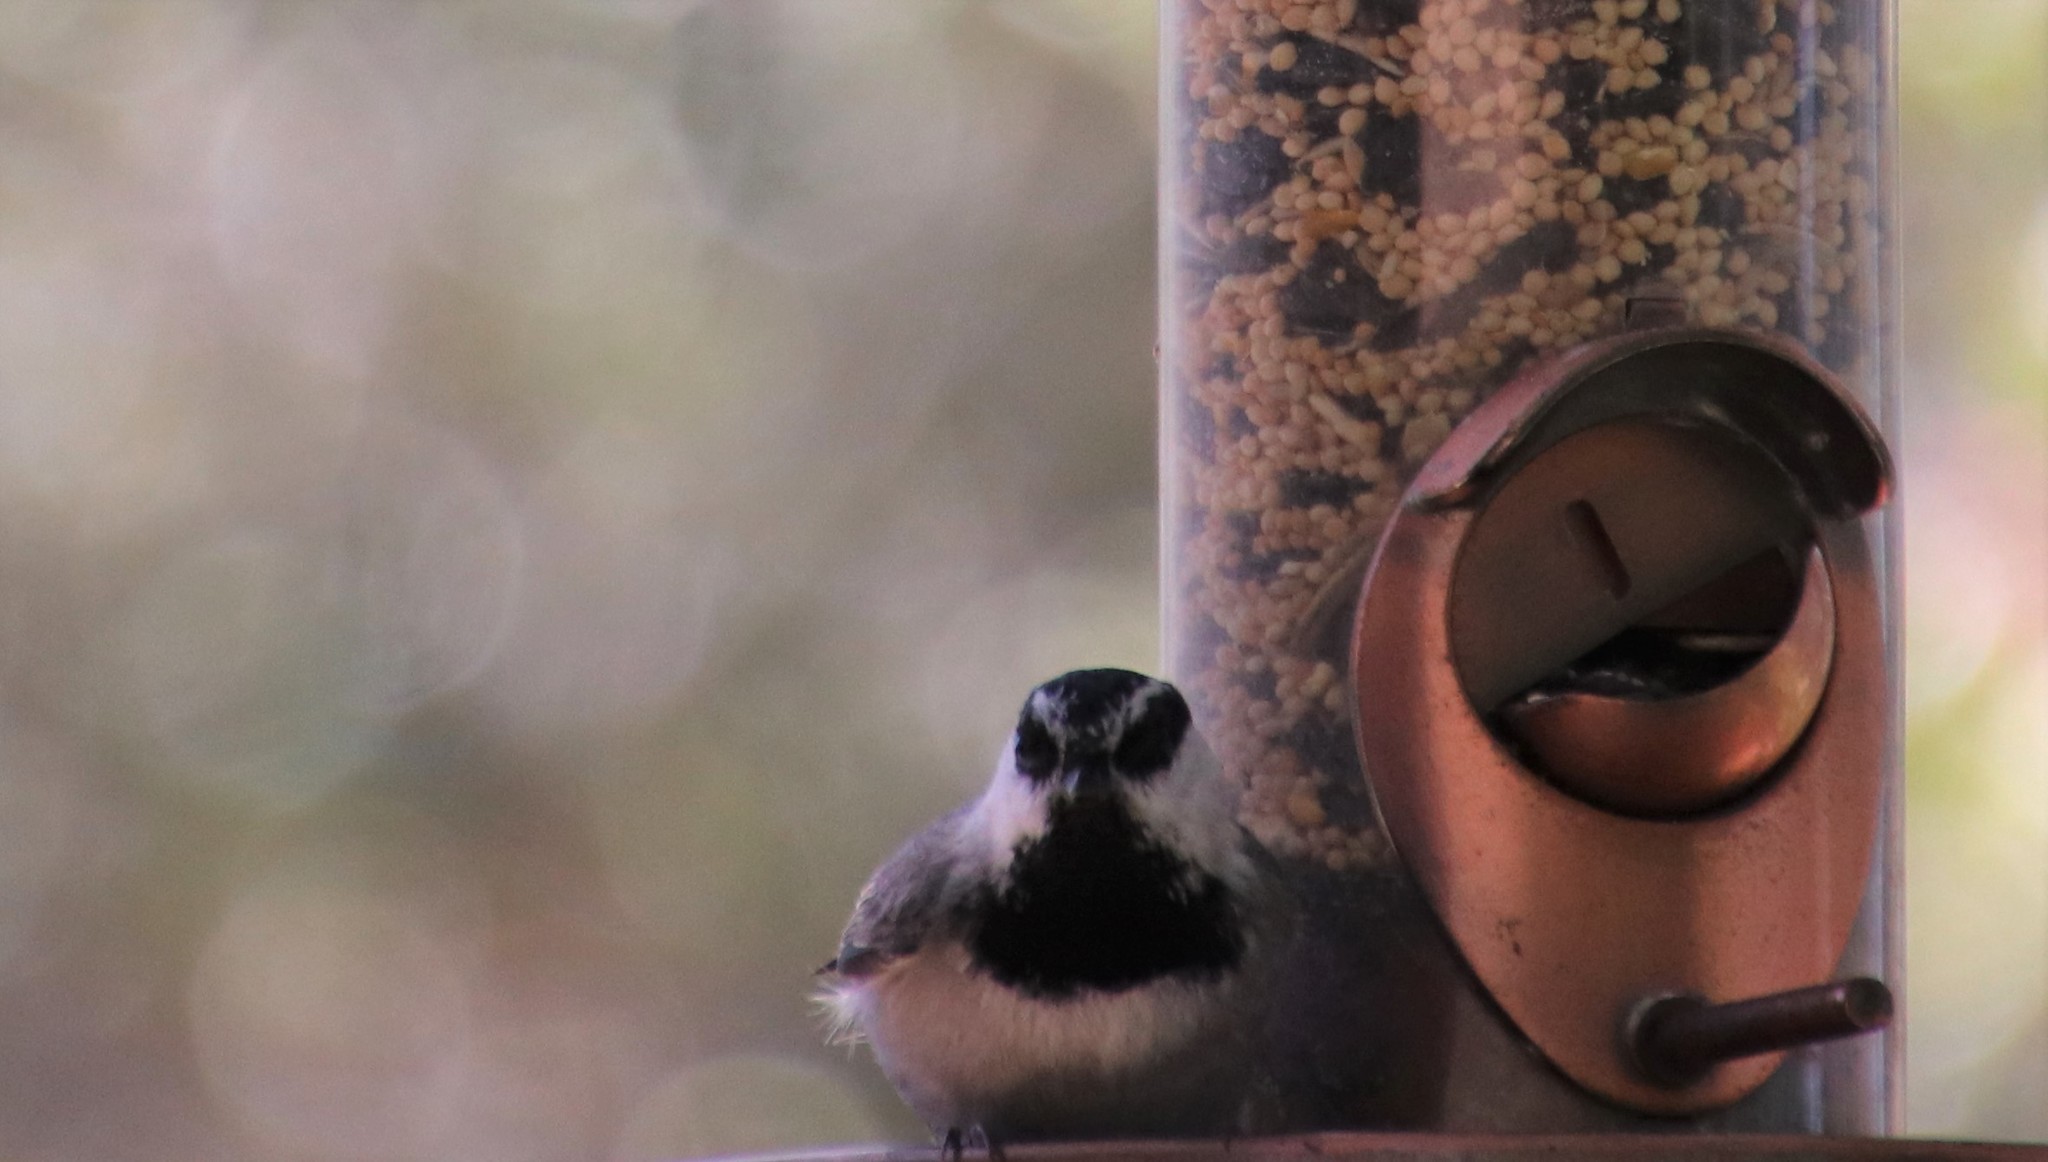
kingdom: Animalia
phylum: Chordata
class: Aves
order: Passeriformes
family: Paridae
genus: Poecile
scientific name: Poecile gambeli
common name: Mountain chickadee
